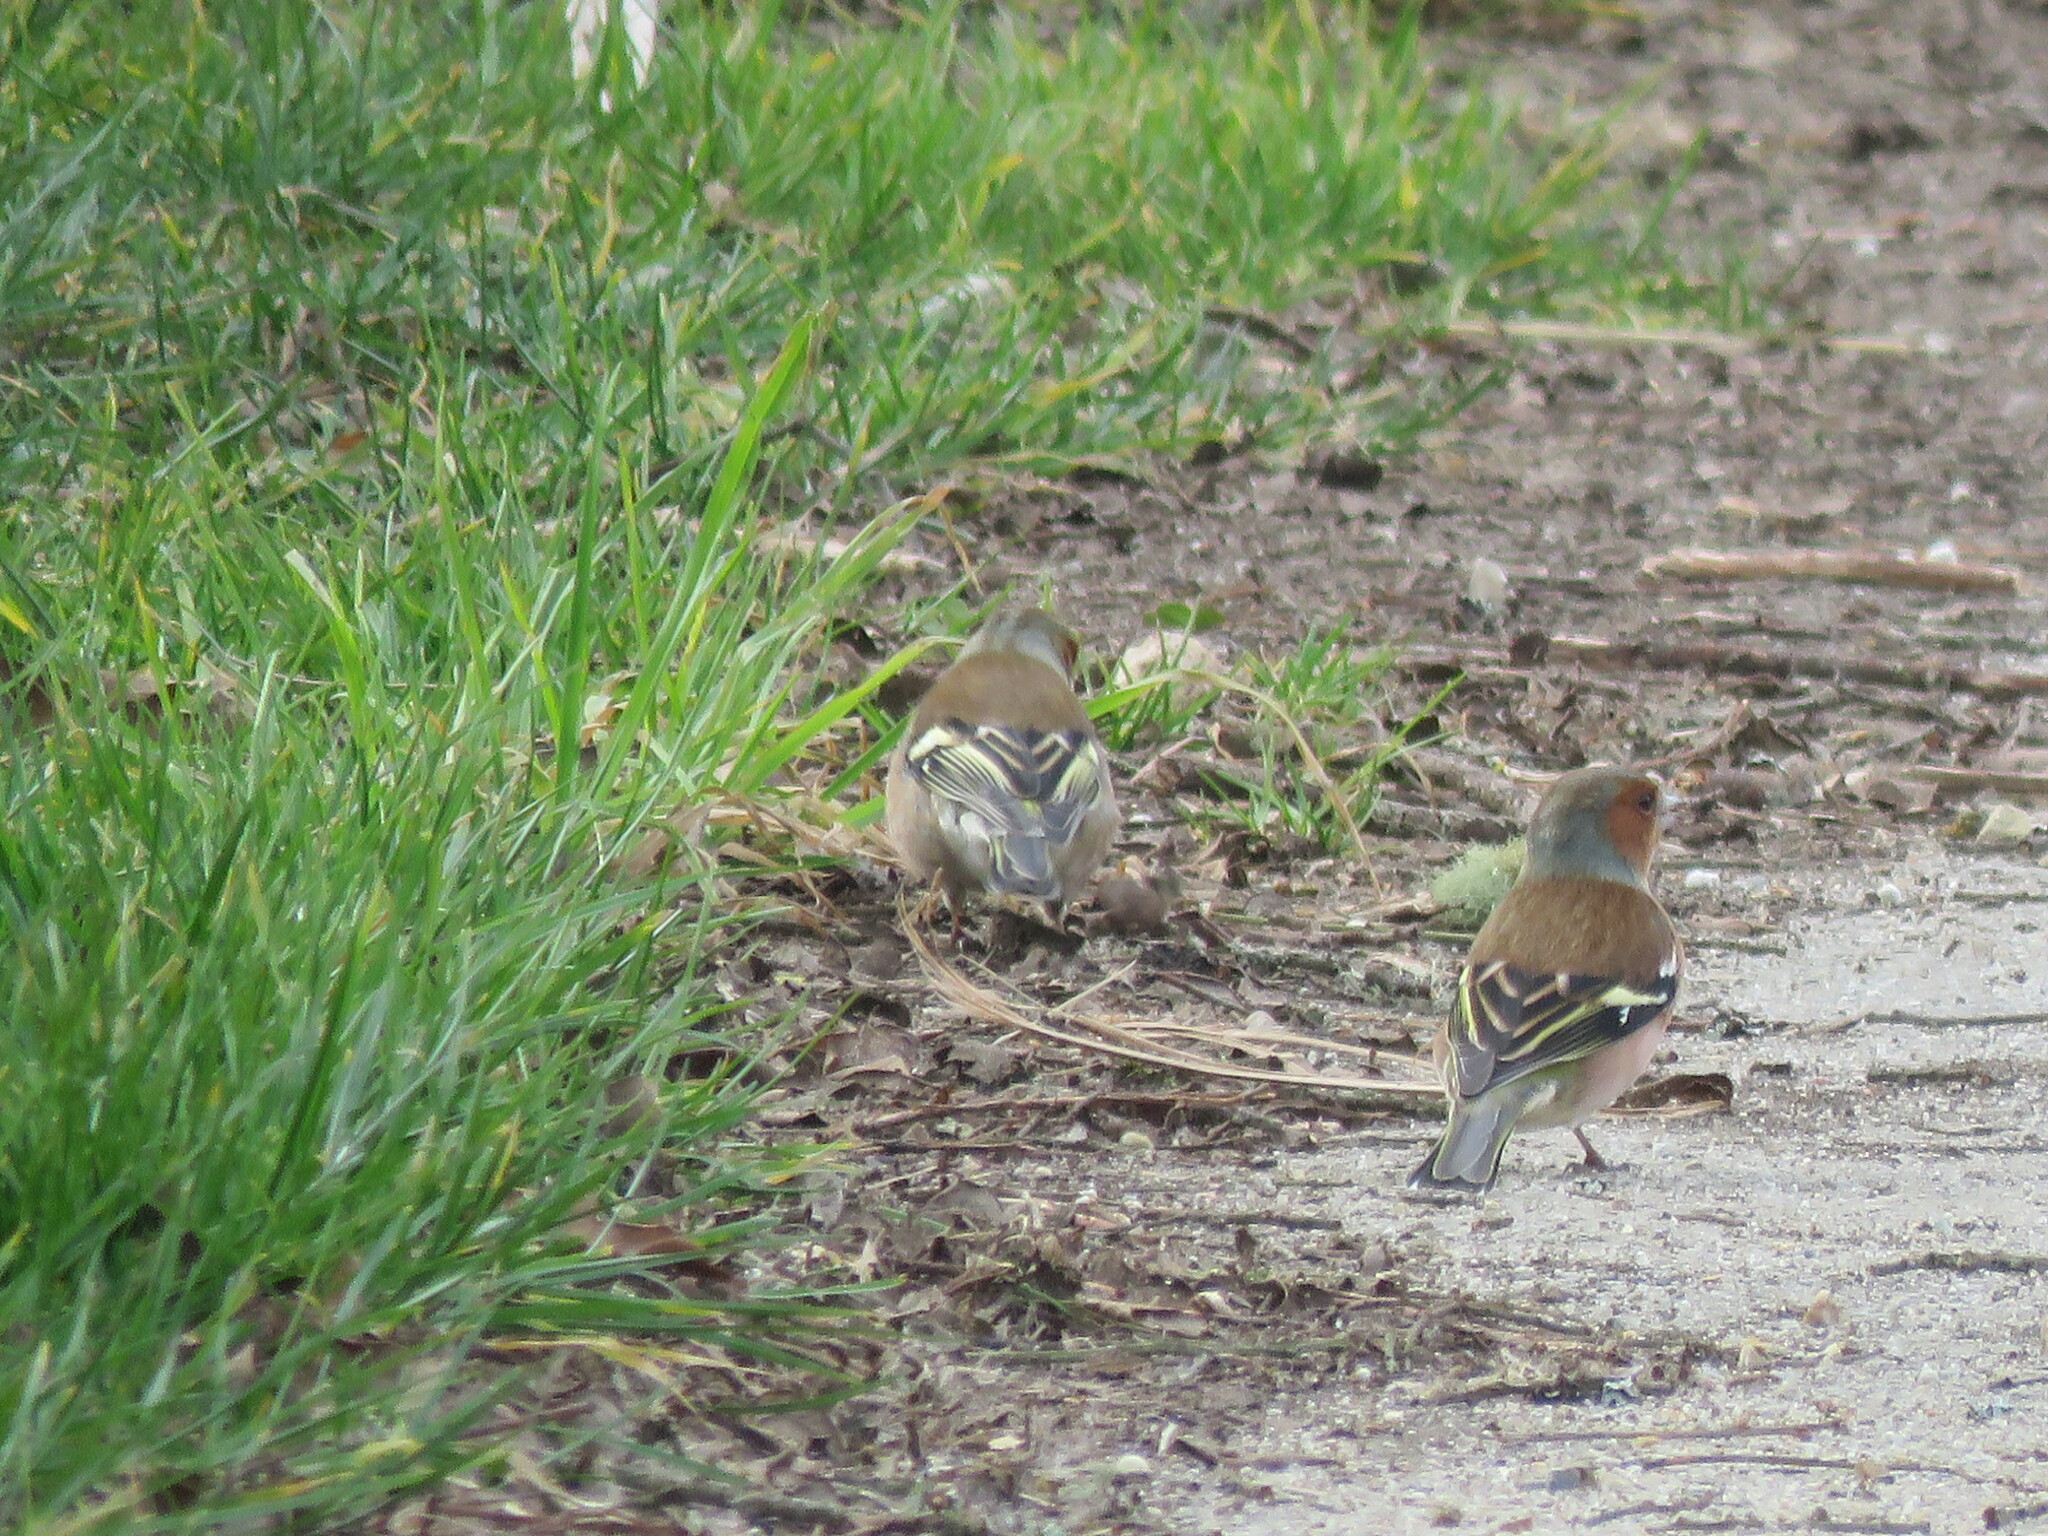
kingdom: Animalia
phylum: Chordata
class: Aves
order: Passeriformes
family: Fringillidae
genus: Fringilla
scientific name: Fringilla coelebs
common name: Common chaffinch
